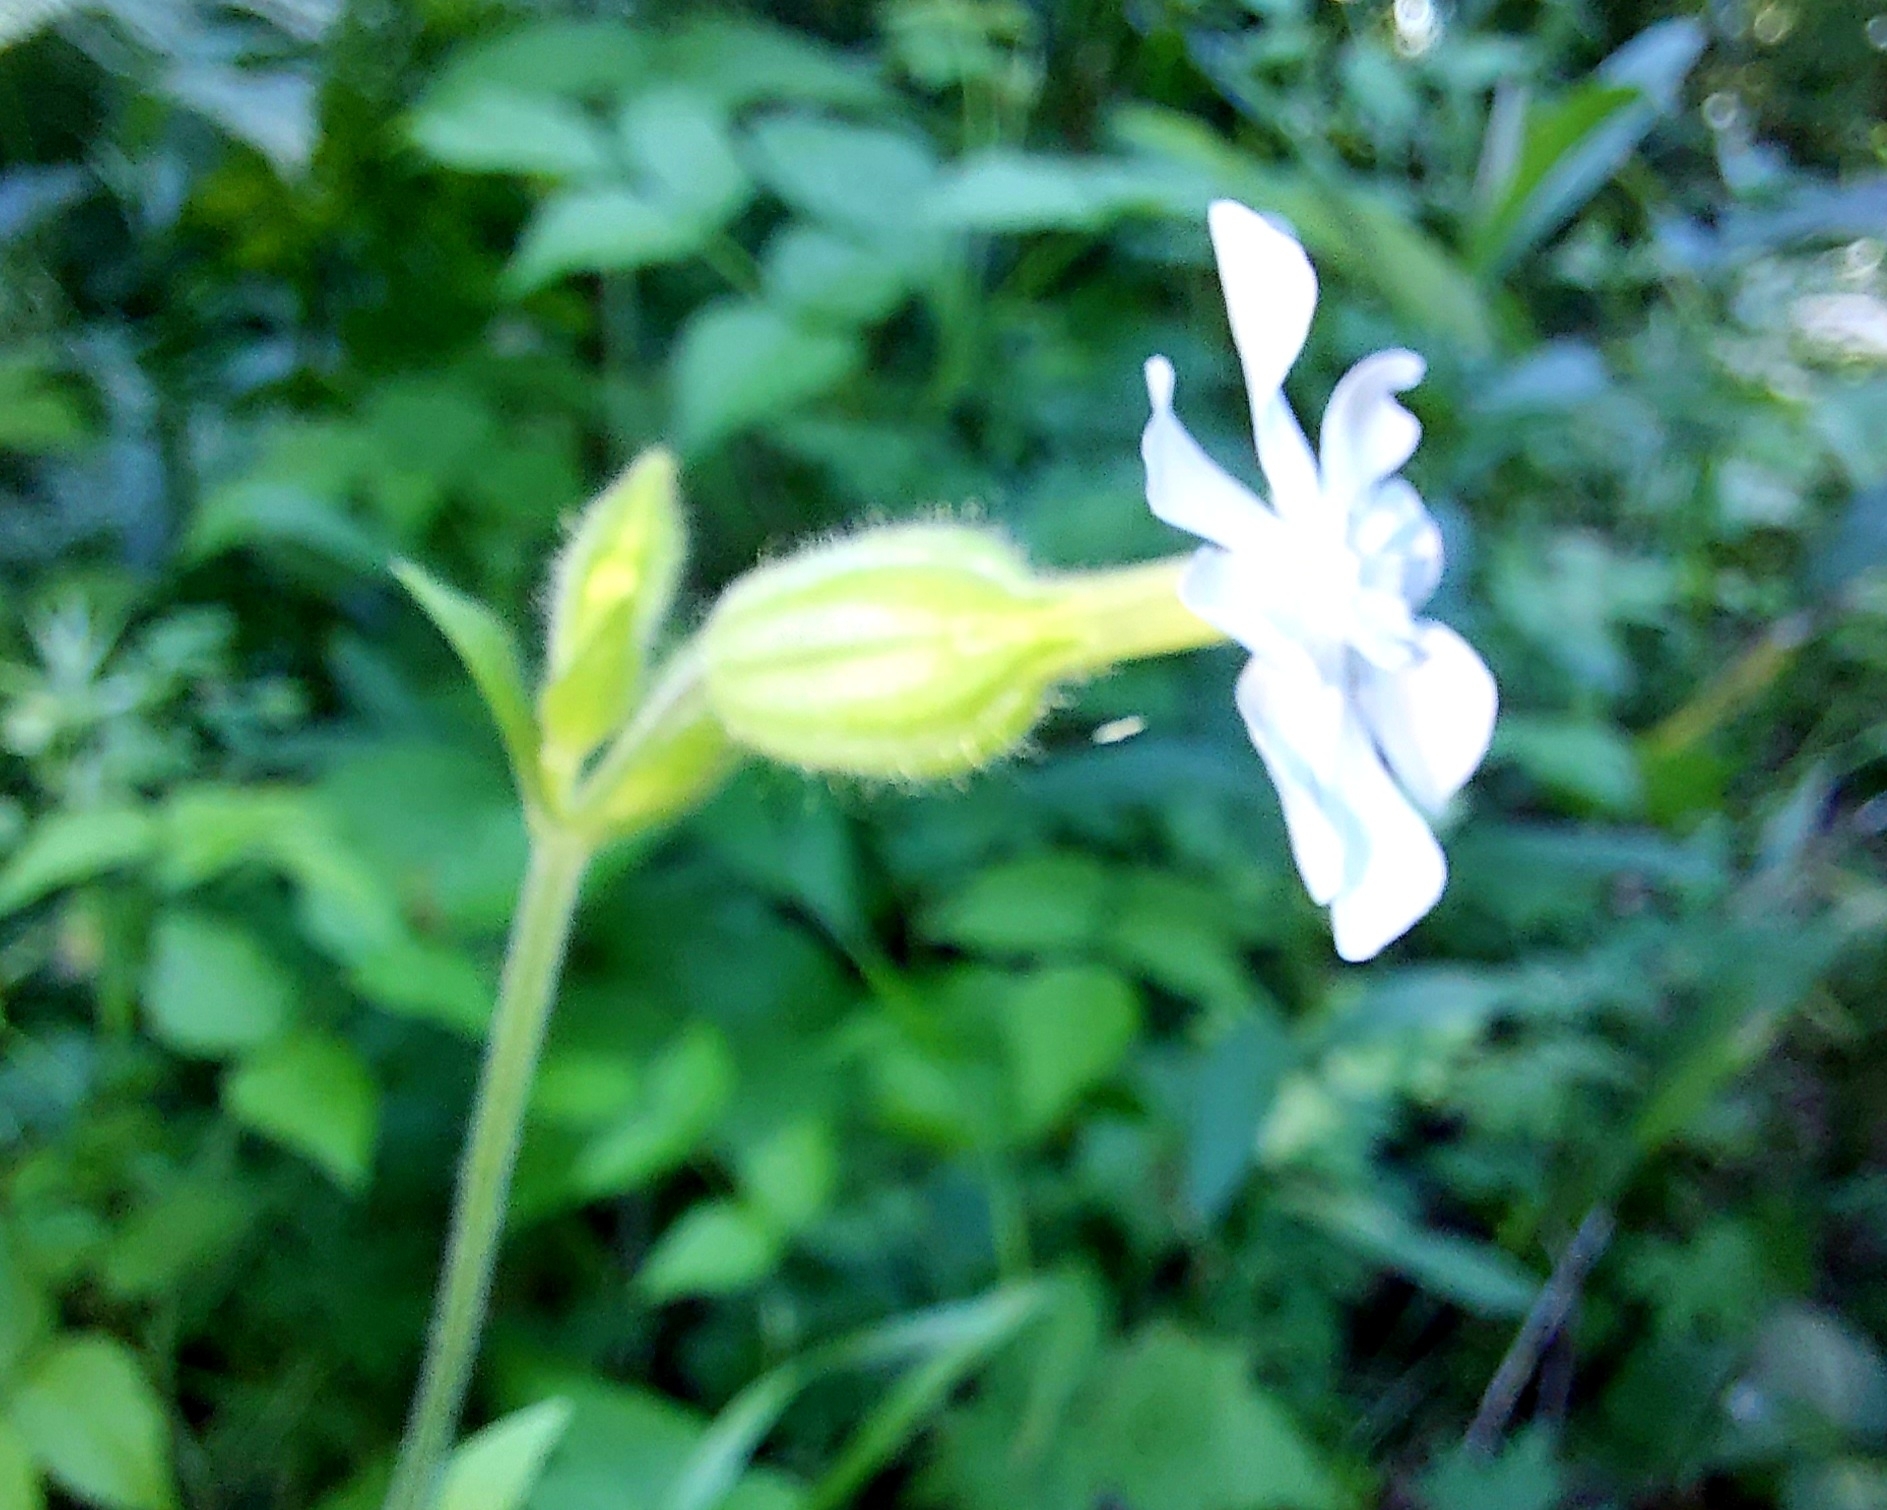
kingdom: Plantae
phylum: Tracheophyta
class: Magnoliopsida
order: Caryophyllales
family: Caryophyllaceae
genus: Silene
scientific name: Silene latifolia
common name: White campion
